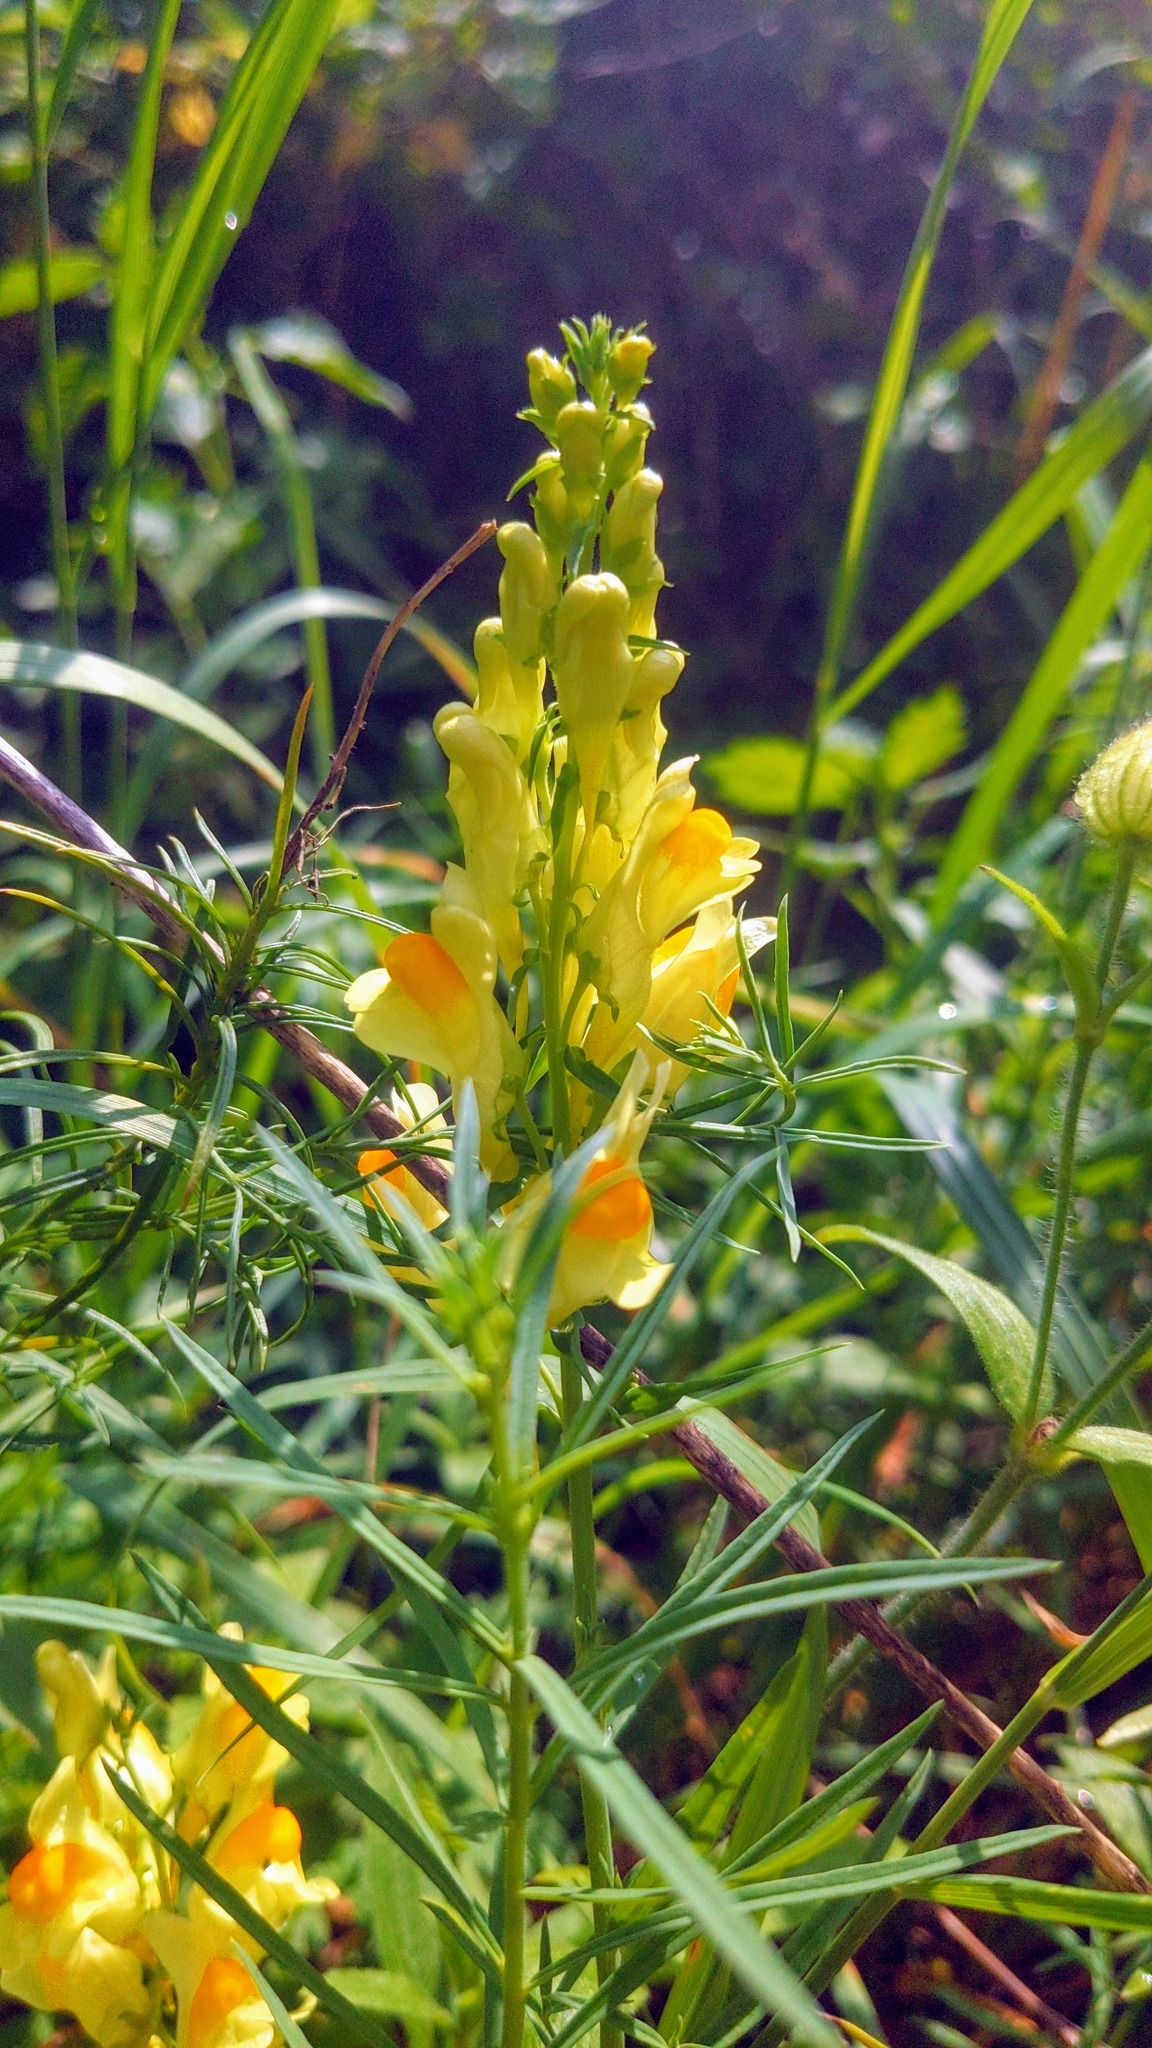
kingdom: Plantae
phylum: Tracheophyta
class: Magnoliopsida
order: Lamiales
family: Plantaginaceae
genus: Linaria
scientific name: Linaria vulgaris
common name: Butter and eggs
